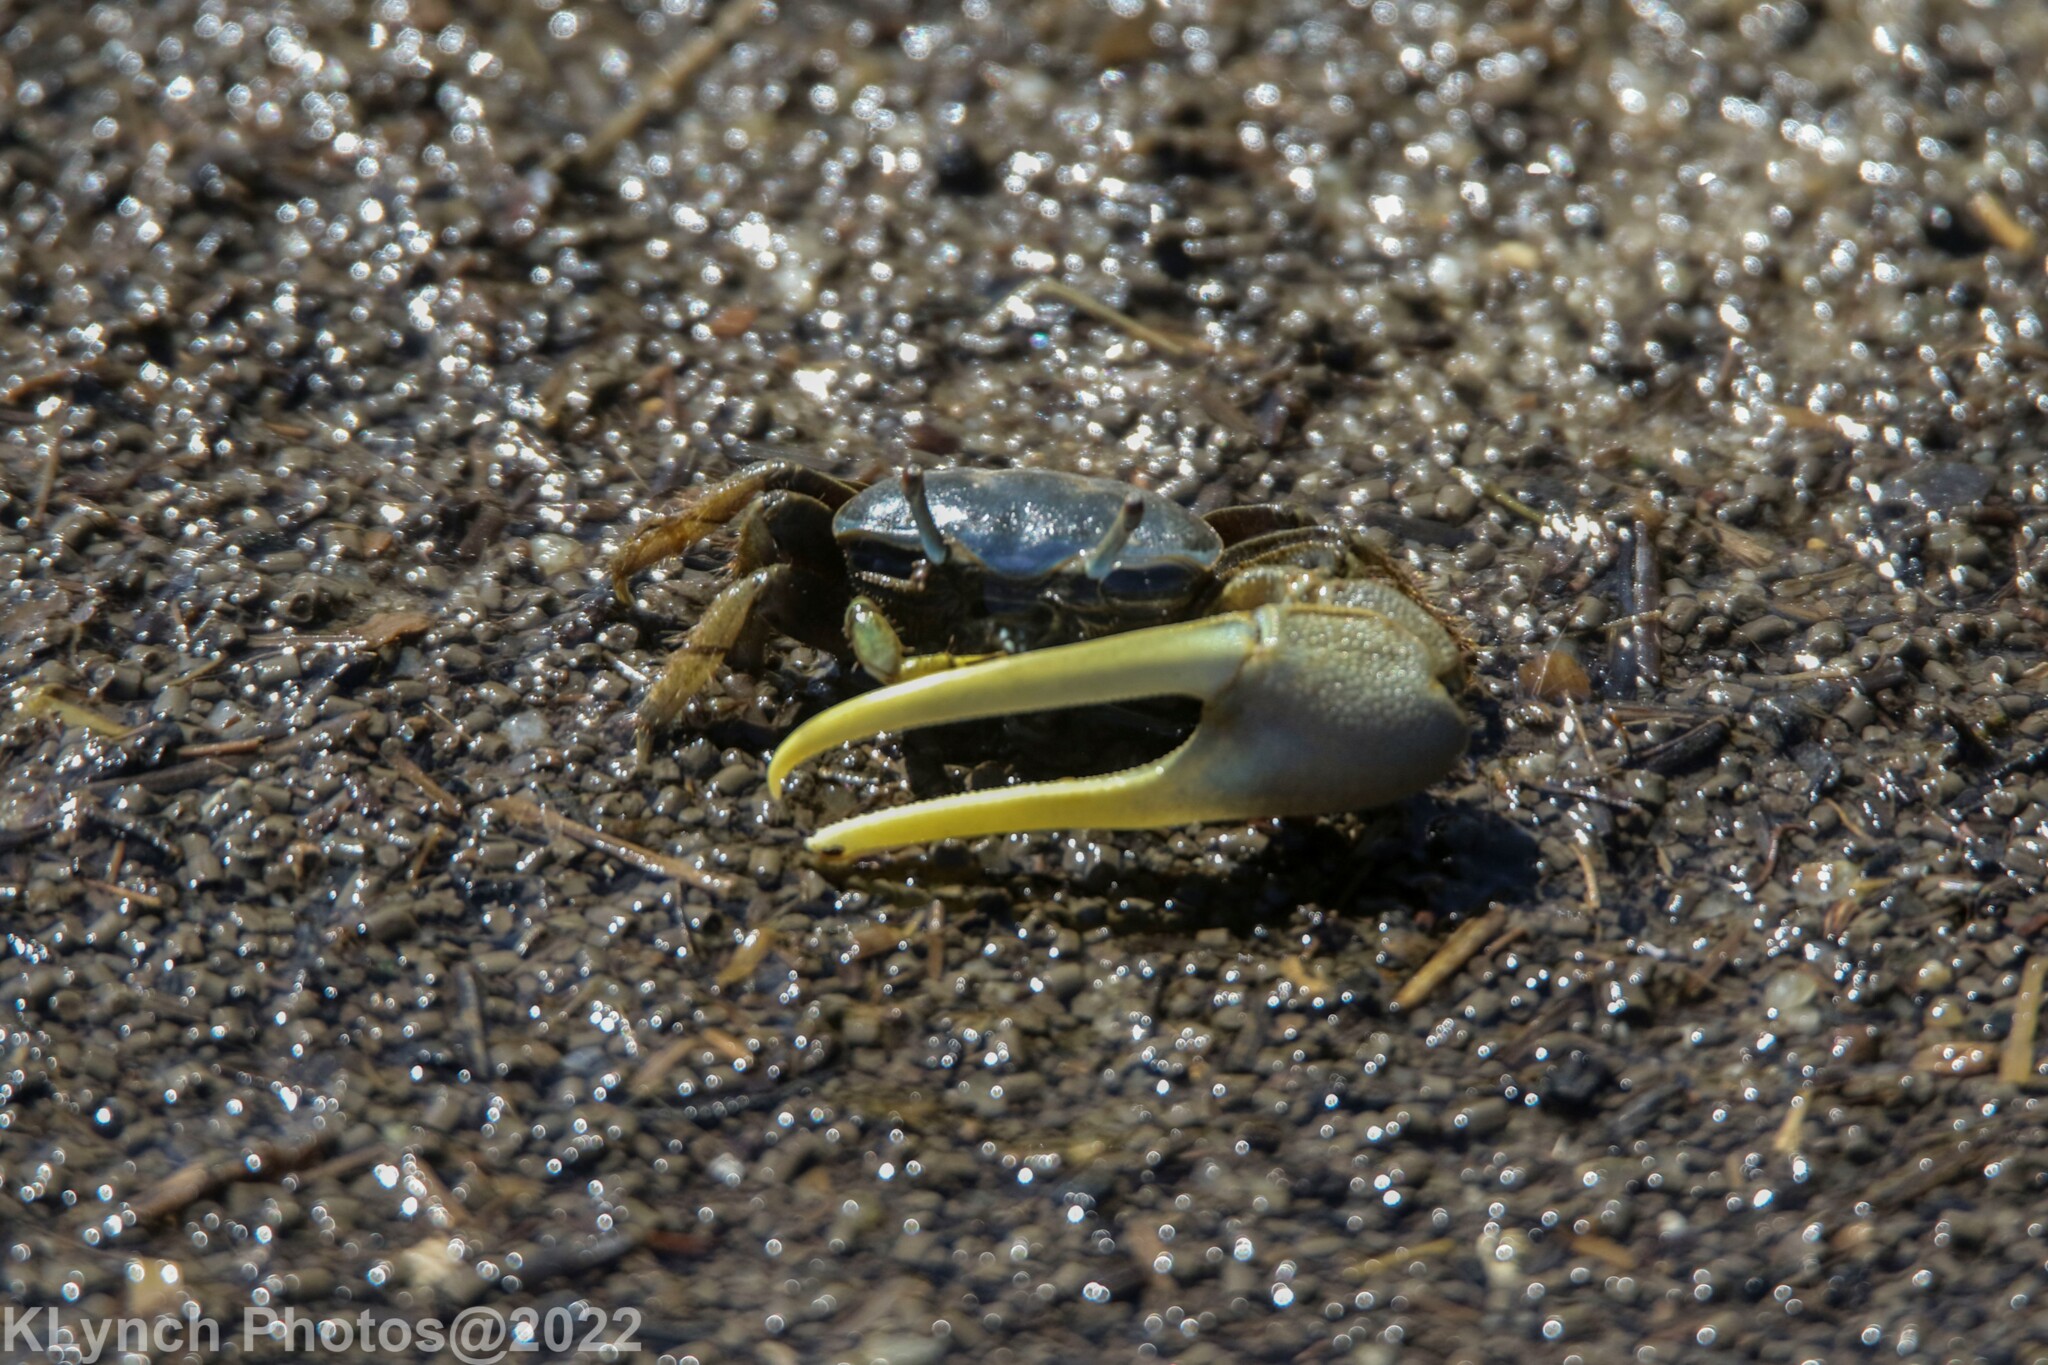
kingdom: Animalia
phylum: Arthropoda
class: Malacostraca
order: Decapoda
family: Ocypodidae
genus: Minuca
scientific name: Minuca pugnax
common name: Mud fiddler crab
